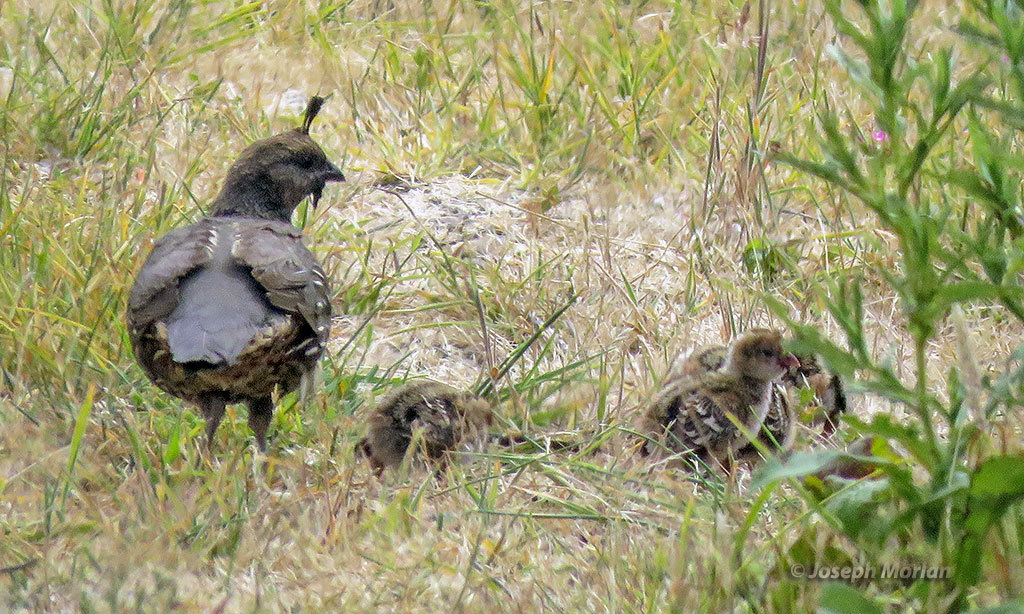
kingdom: Animalia
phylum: Chordata
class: Aves
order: Galliformes
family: Odontophoridae
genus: Callipepla
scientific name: Callipepla californica
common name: California quail
